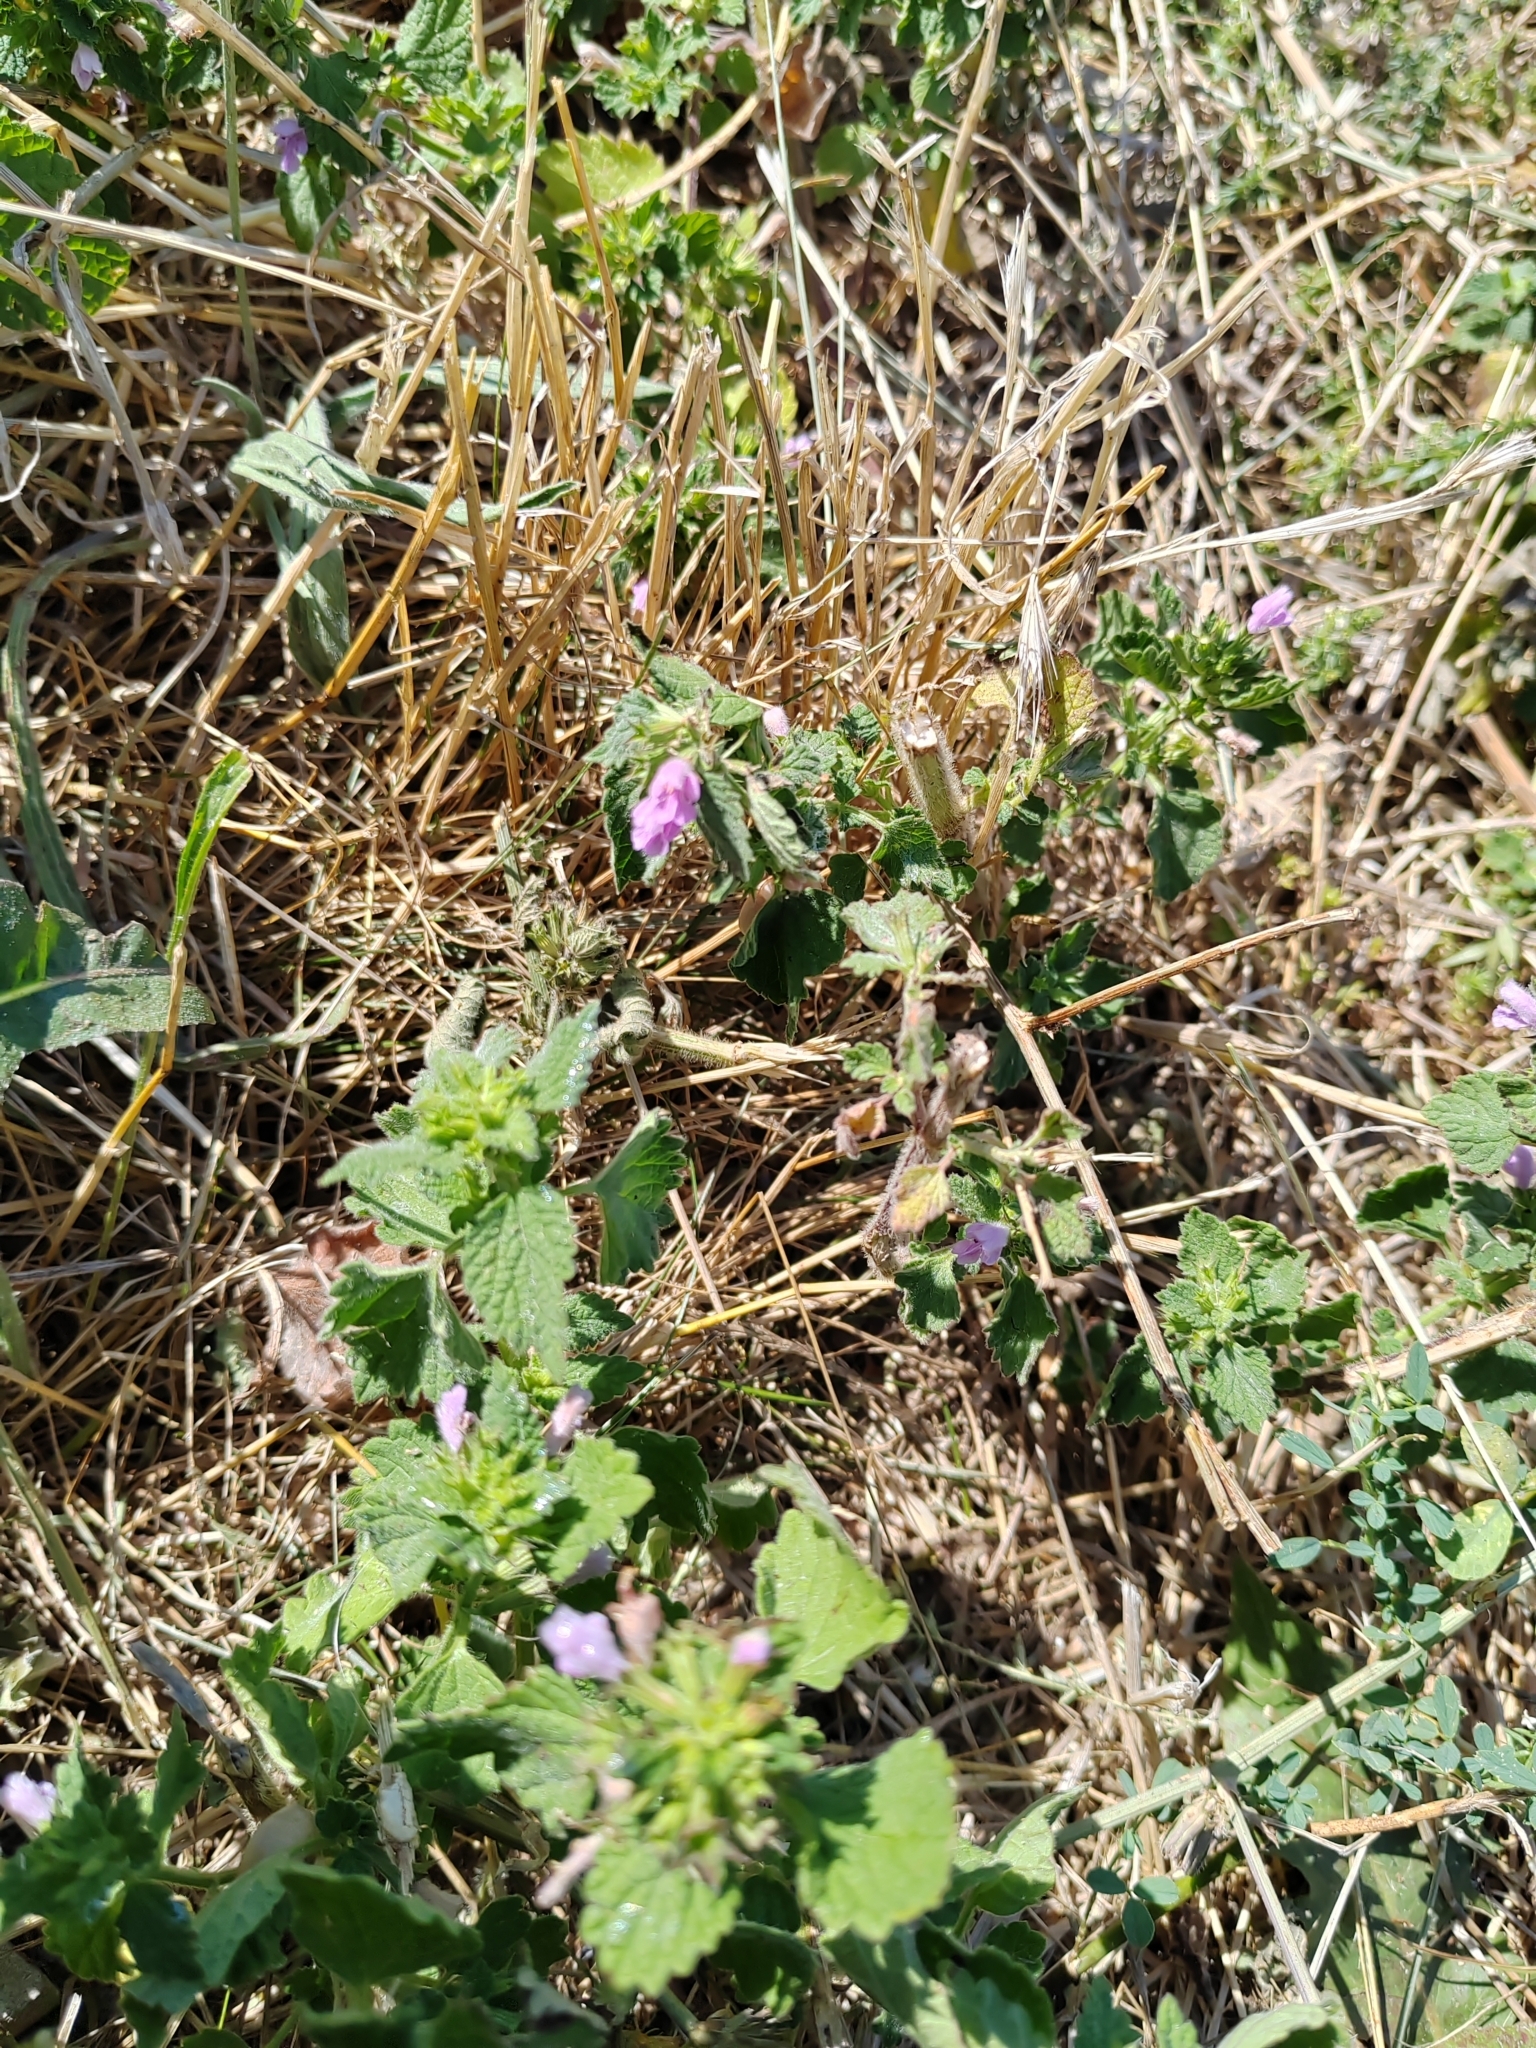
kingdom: Plantae
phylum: Tracheophyta
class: Magnoliopsida
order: Lamiales
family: Lamiaceae
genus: Ballota
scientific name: Ballota nigra
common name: Black horehound
